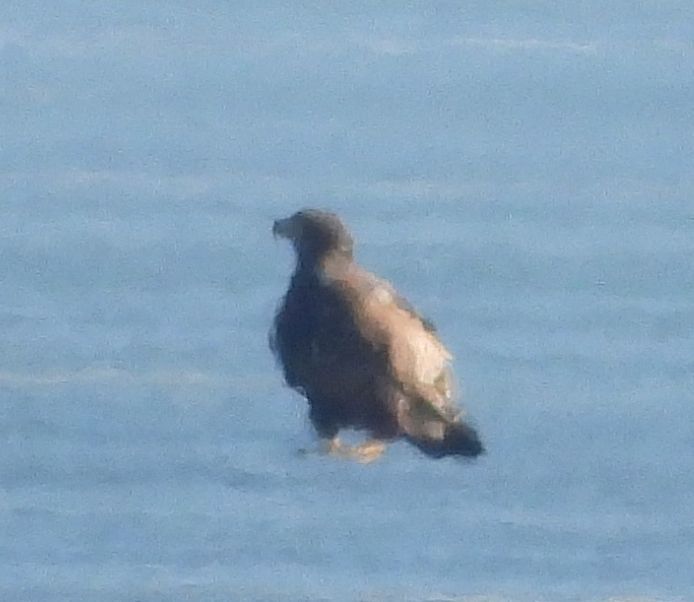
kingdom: Animalia
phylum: Chordata
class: Aves
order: Accipitriformes
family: Accipitridae
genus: Haliaeetus
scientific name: Haliaeetus leucocephalus
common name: Bald eagle
